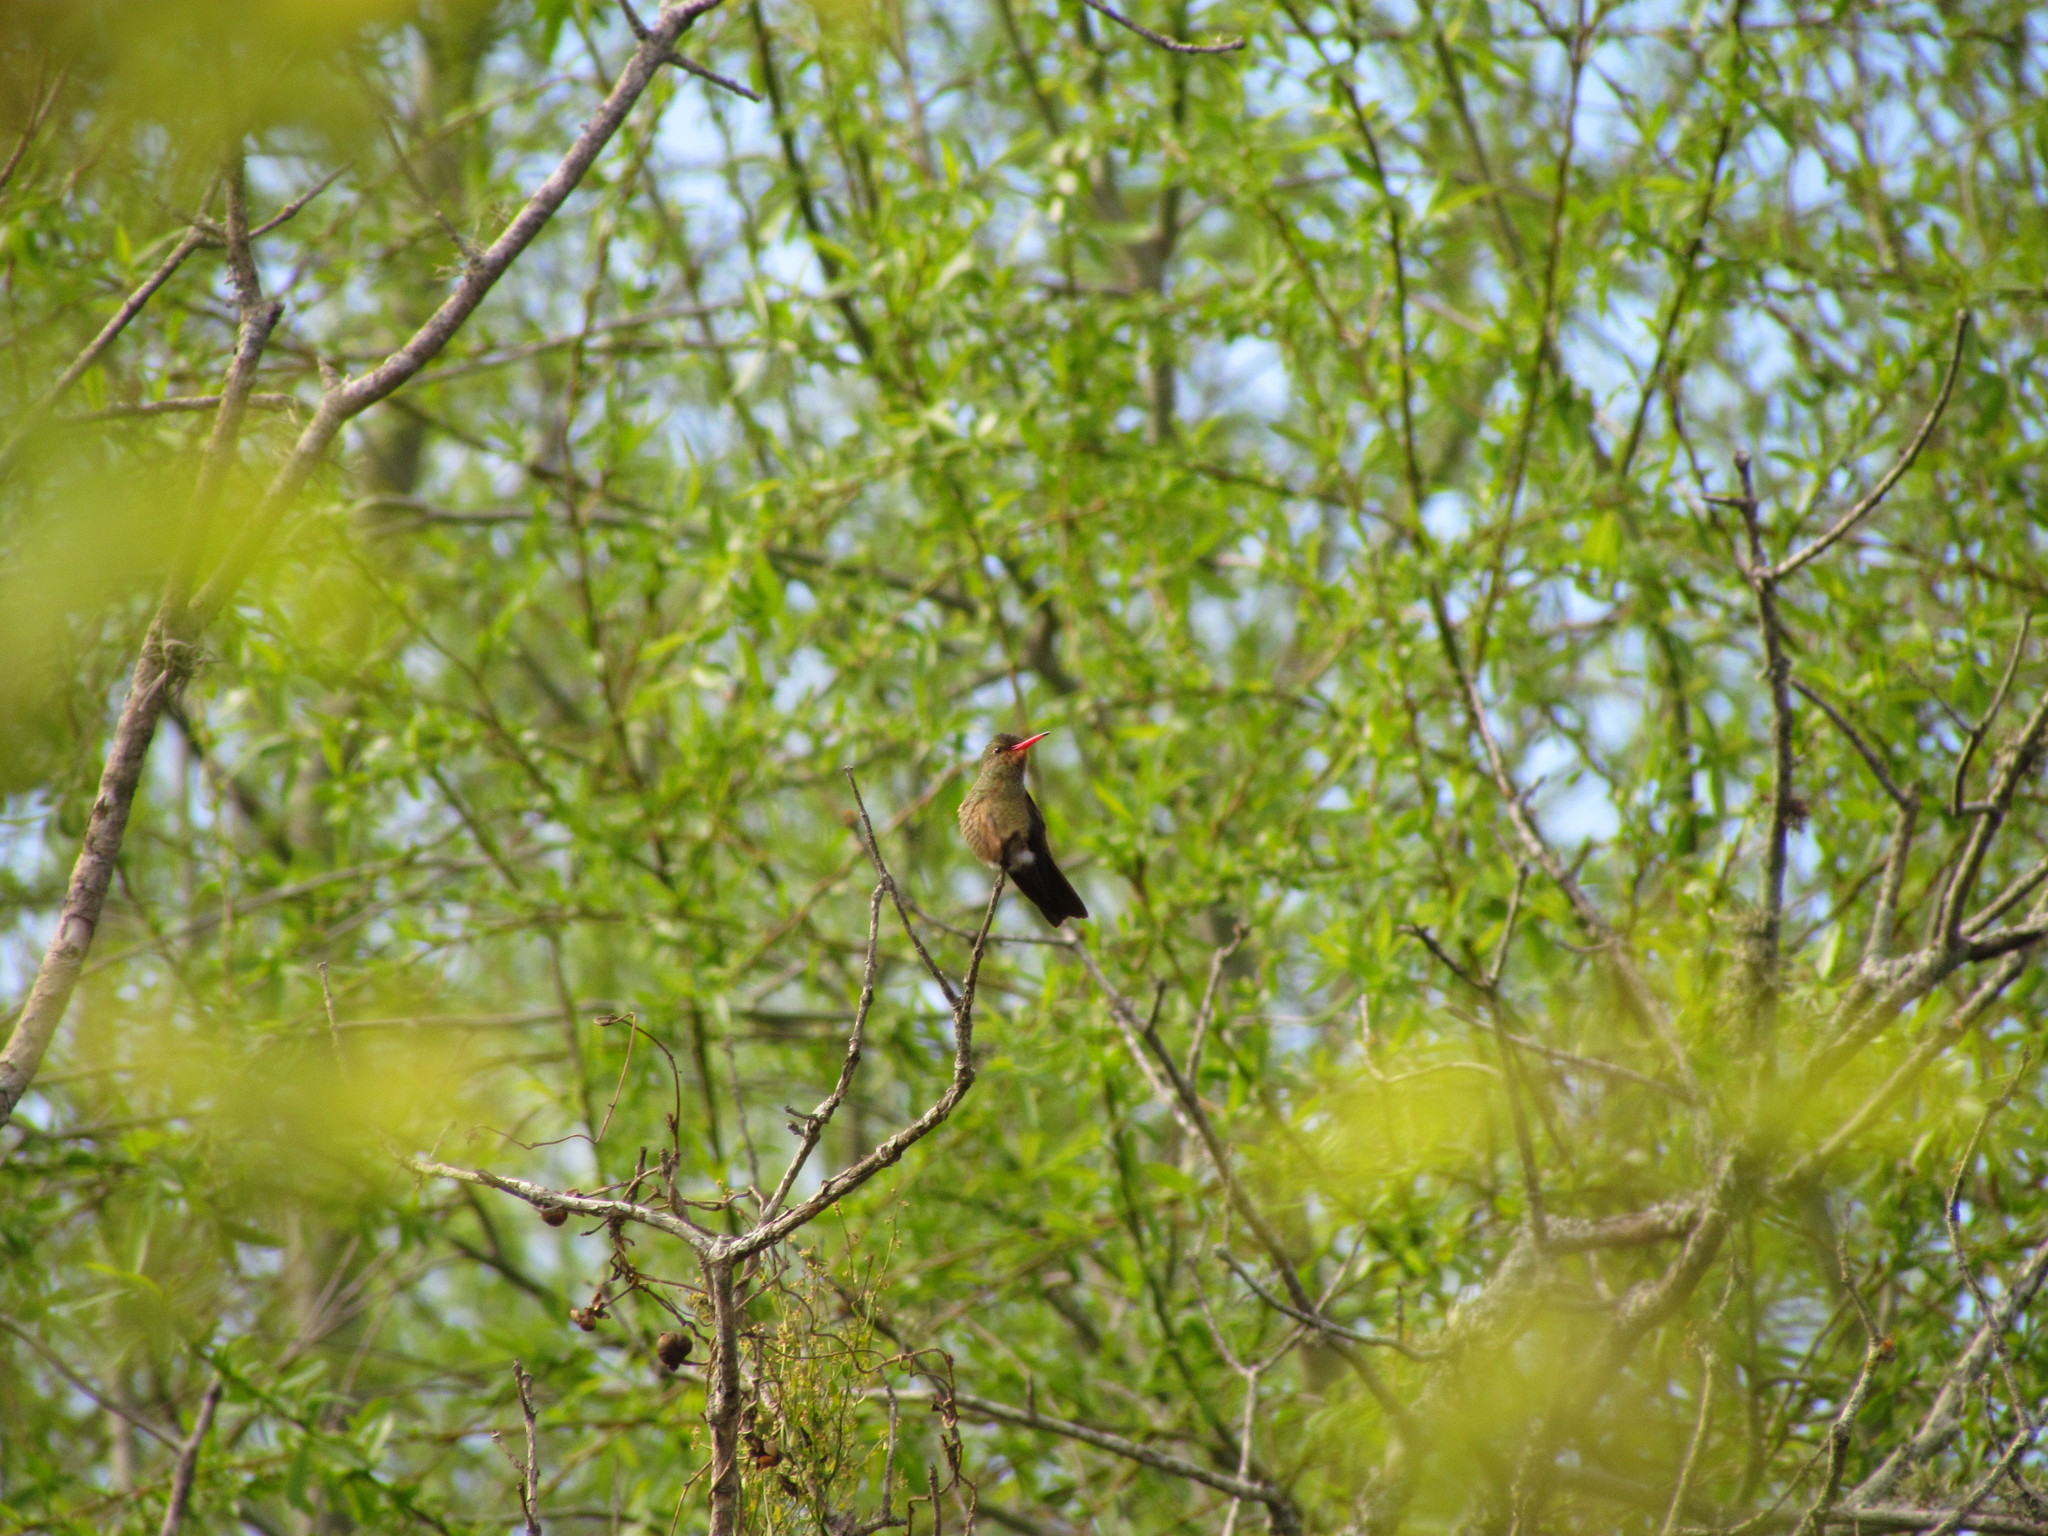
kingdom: Animalia
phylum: Chordata
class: Aves
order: Apodiformes
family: Trochilidae
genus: Hylocharis
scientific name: Hylocharis chrysura
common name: Gilded sapphire
